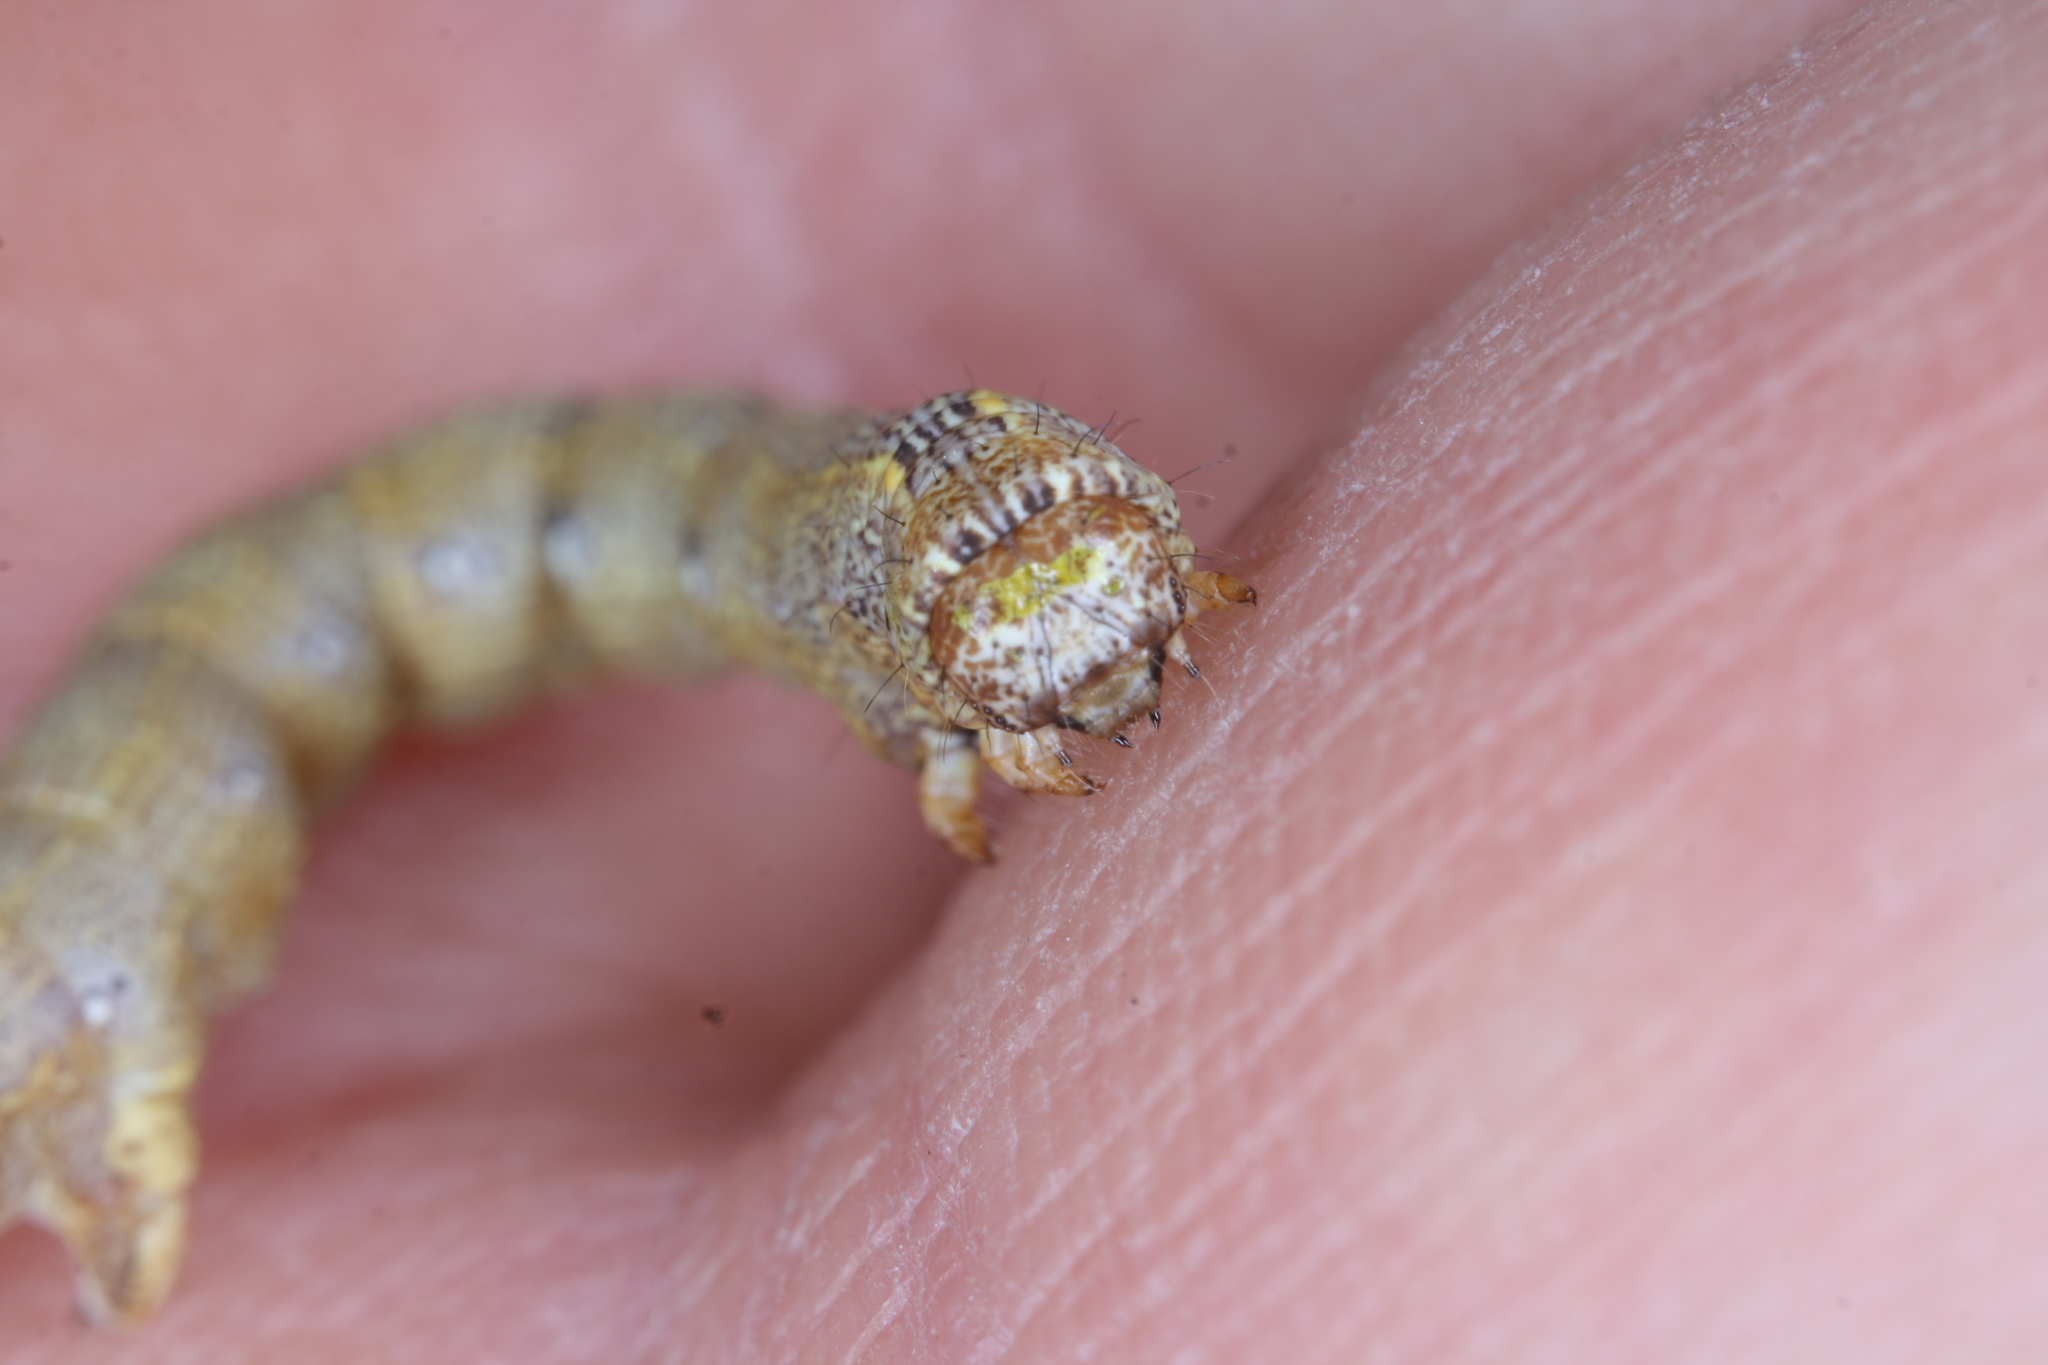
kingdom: Animalia
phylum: Arthropoda
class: Insecta
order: Lepidoptera
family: Geometridae
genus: Colotois
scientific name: Colotois pennaria
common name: Feathered thorn
